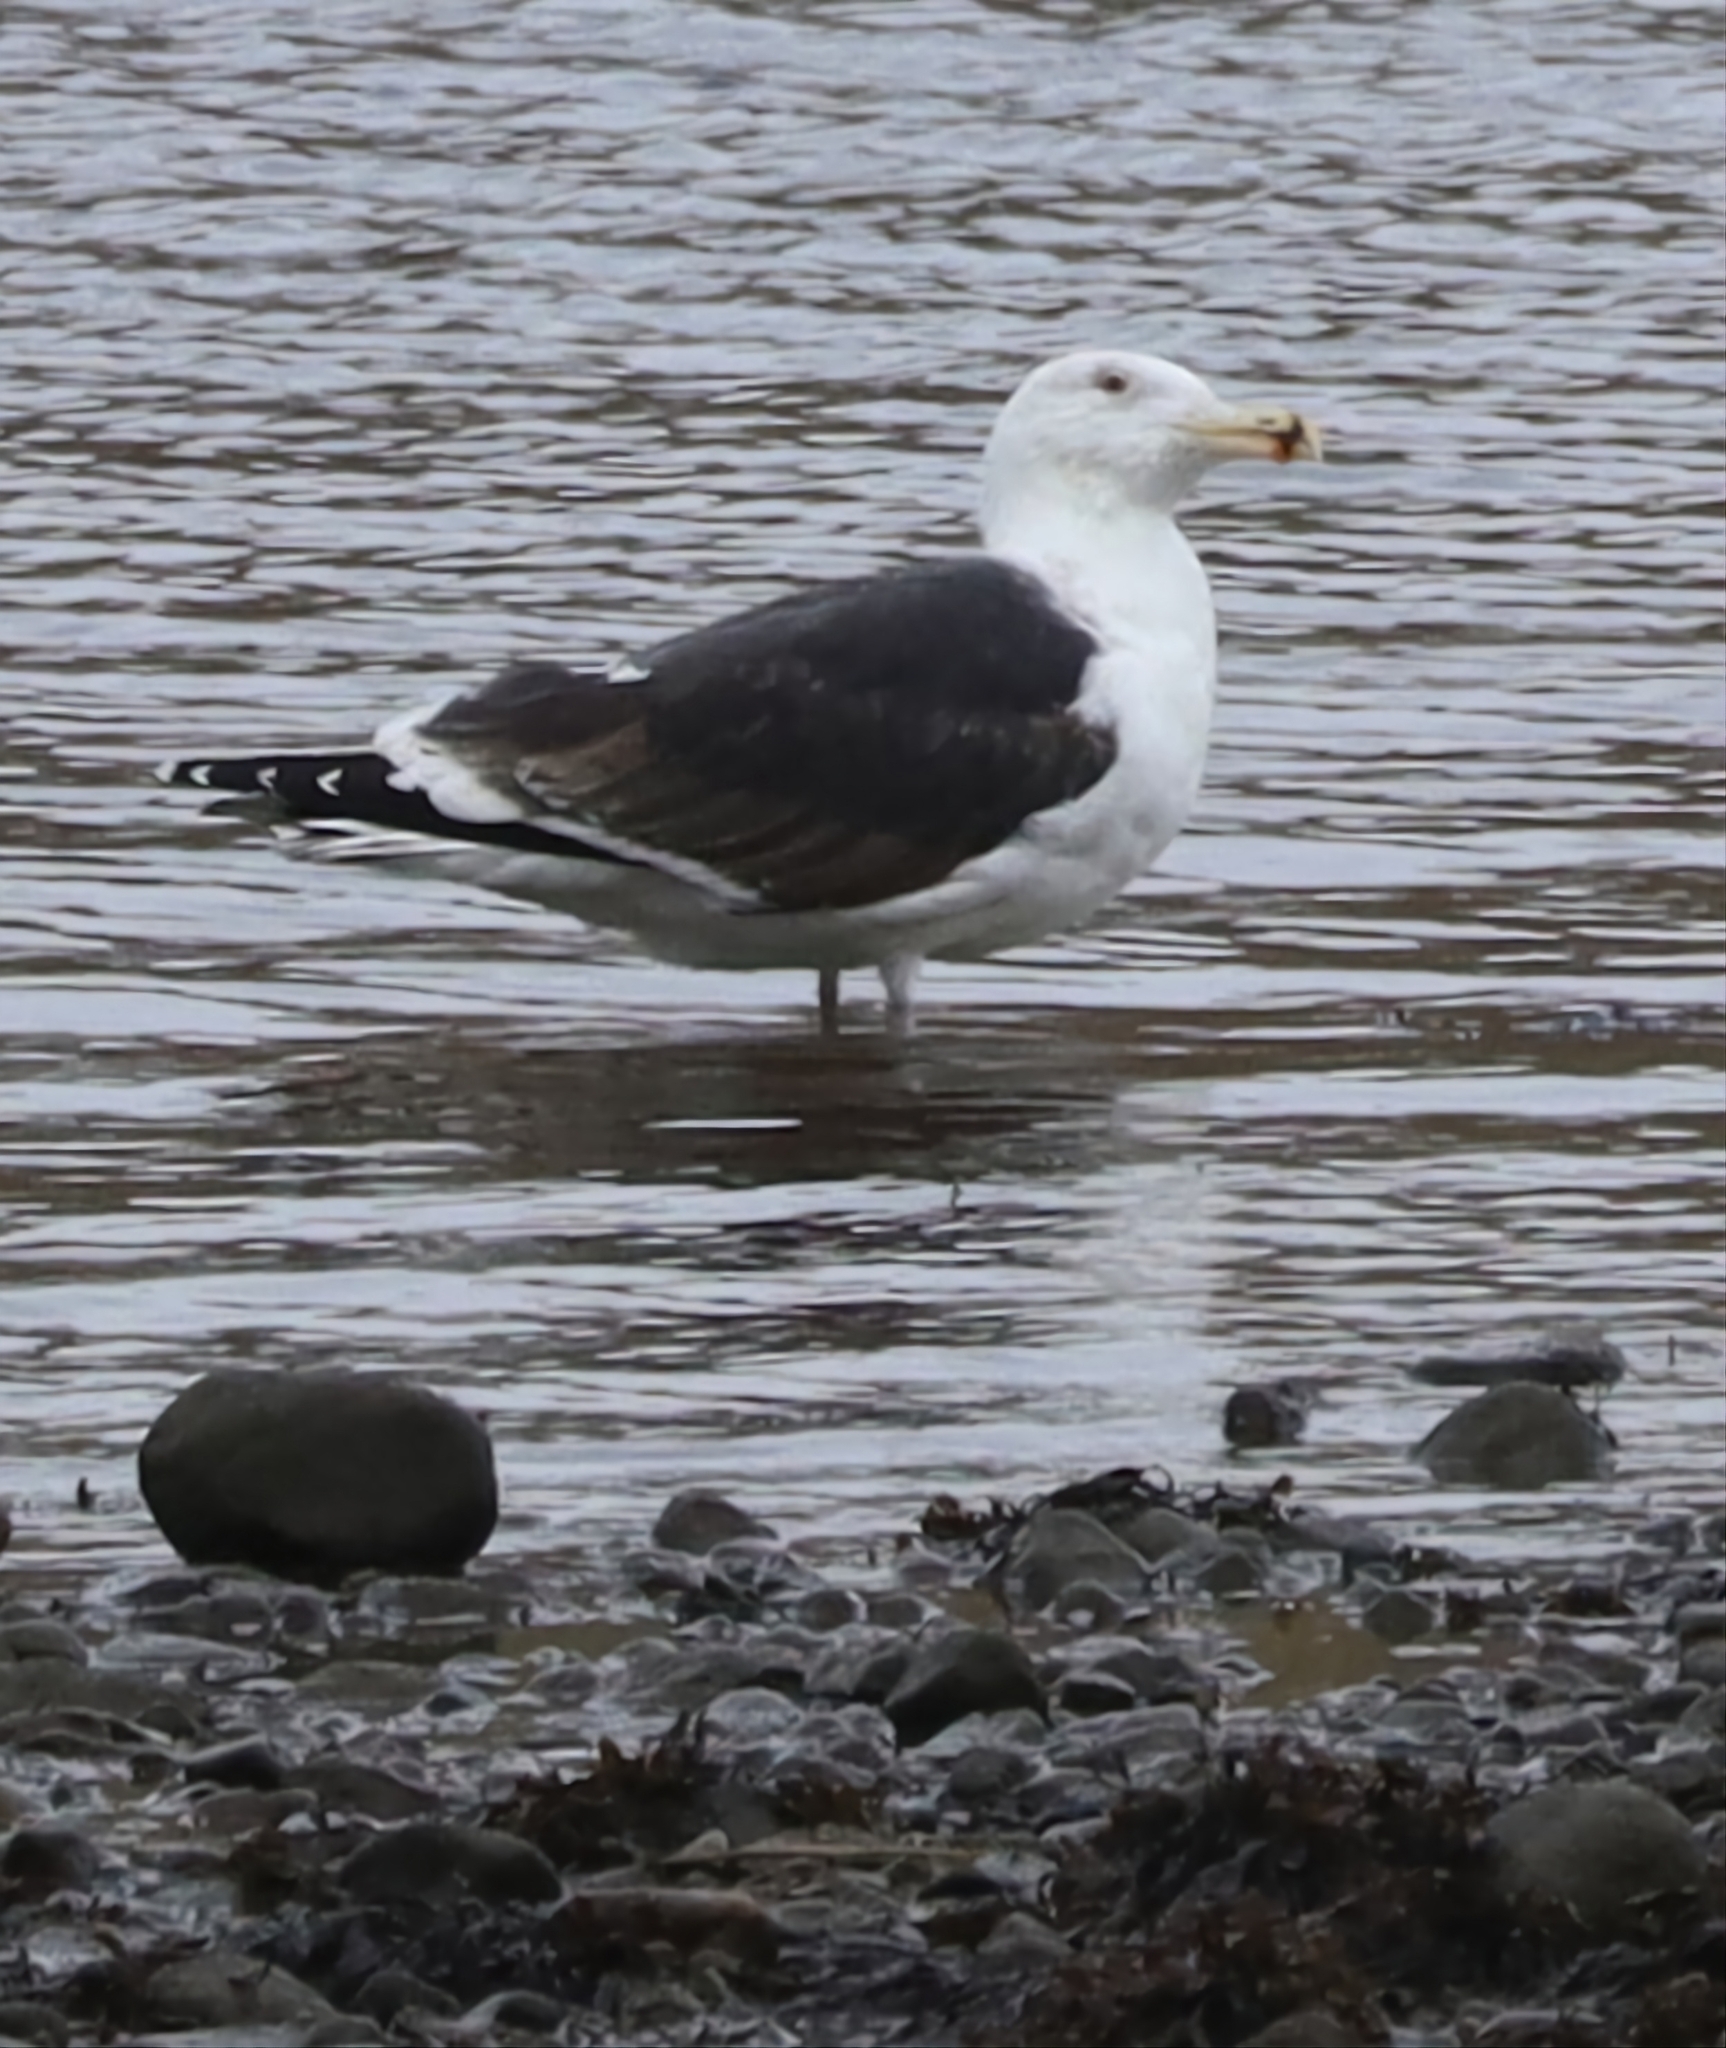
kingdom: Animalia
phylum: Chordata
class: Aves
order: Charadriiformes
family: Laridae
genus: Larus
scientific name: Larus marinus
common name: Great black-backed gull
